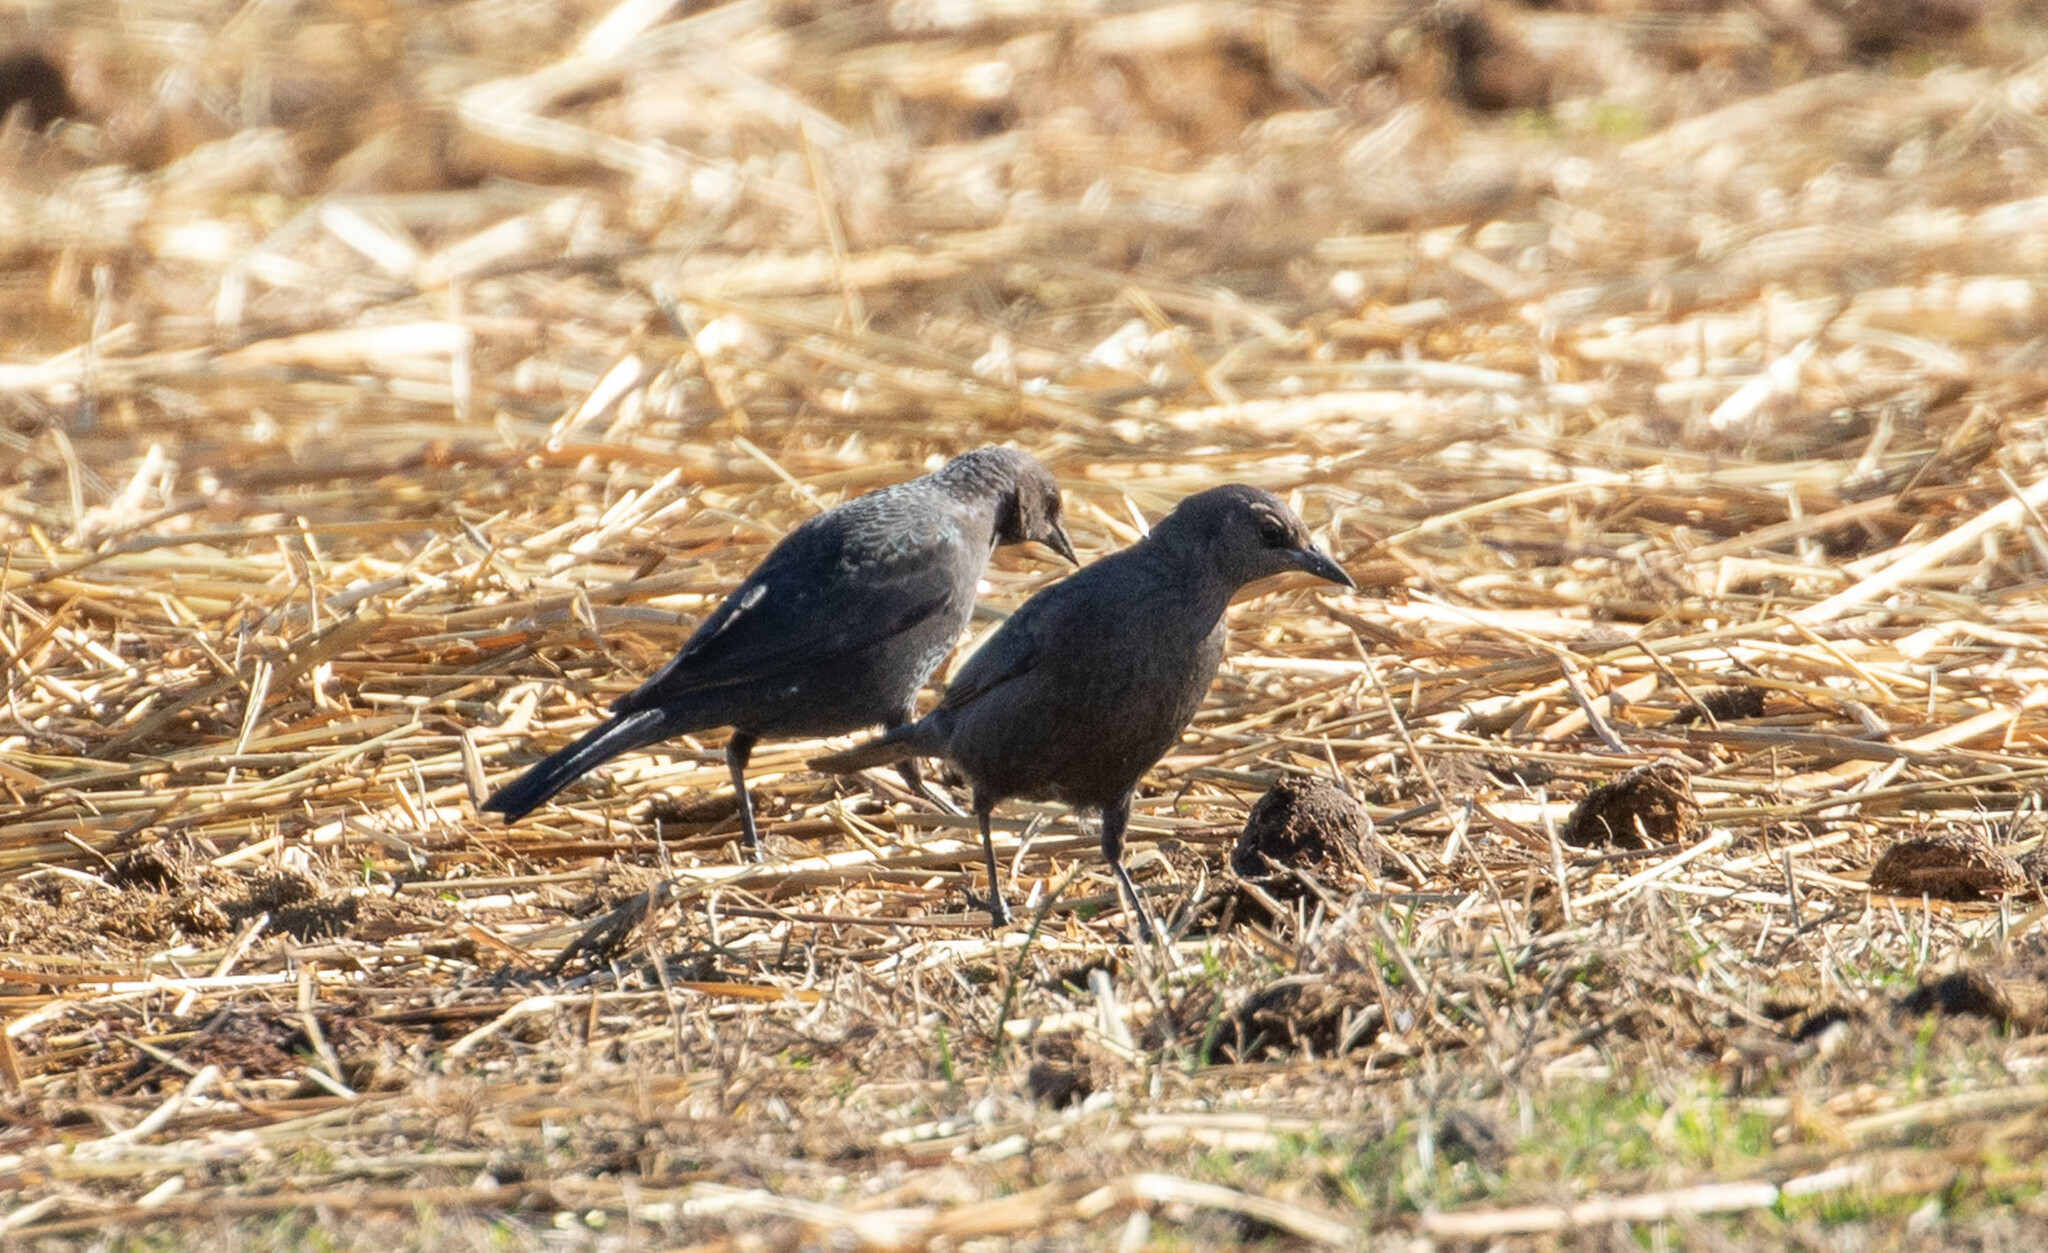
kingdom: Animalia
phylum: Chordata
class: Aves
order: Passeriformes
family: Icteridae
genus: Euphagus
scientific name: Euphagus cyanocephalus
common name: Brewer's blackbird
